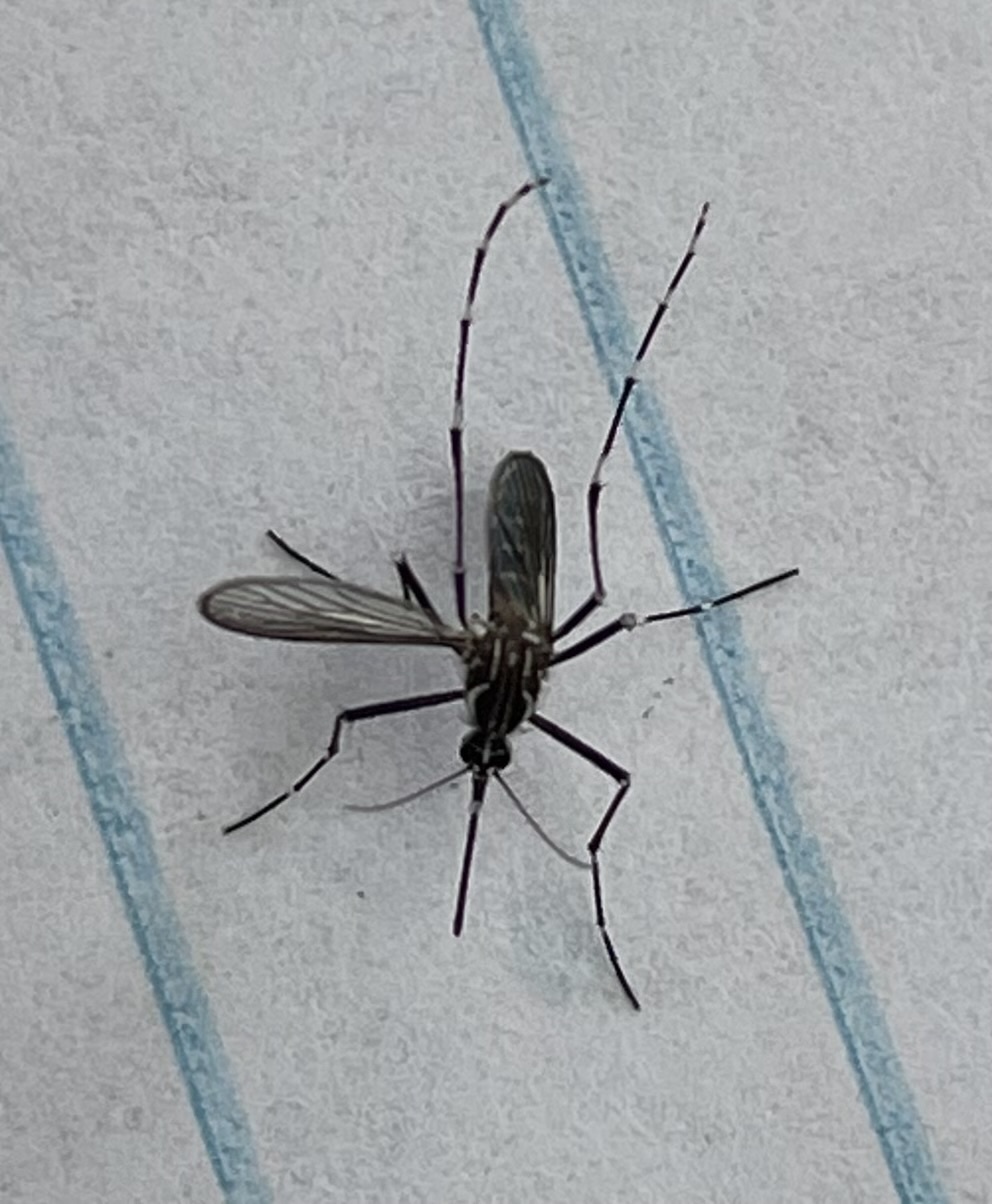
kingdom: Animalia
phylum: Arthropoda
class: Insecta
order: Diptera
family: Culicidae
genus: Aedes
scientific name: Aedes aegypti
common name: Yellow fever mosquito
